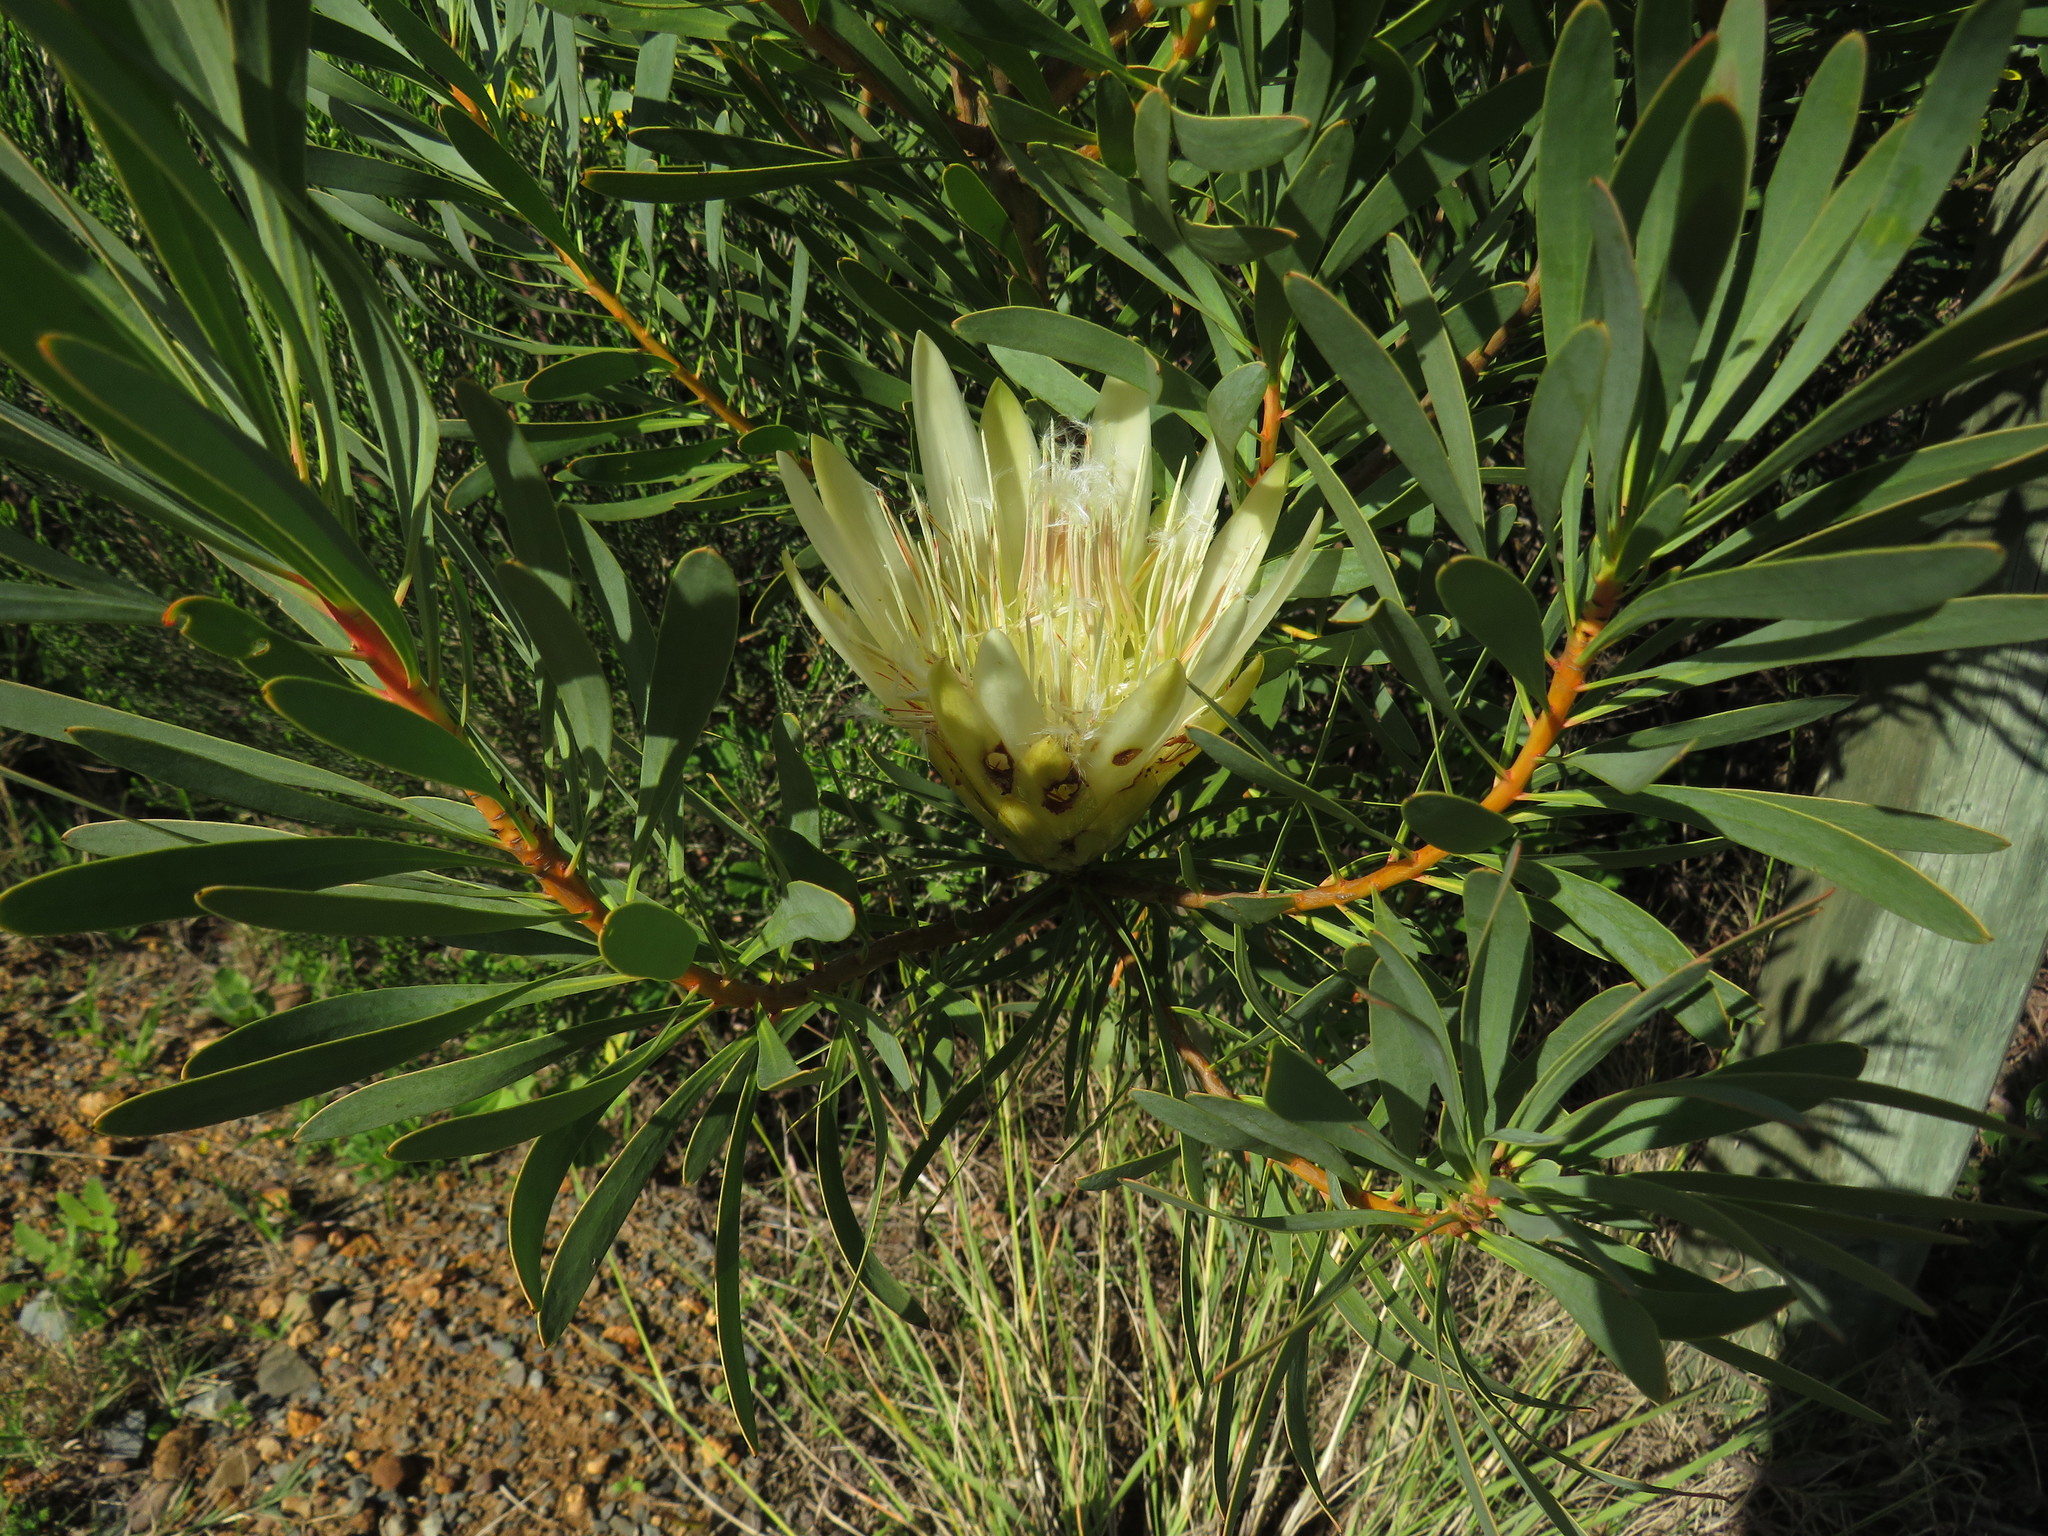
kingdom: Plantae
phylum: Tracheophyta
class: Magnoliopsida
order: Proteales
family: Proteaceae
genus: Protea
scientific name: Protea repens
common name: Sugarbush
